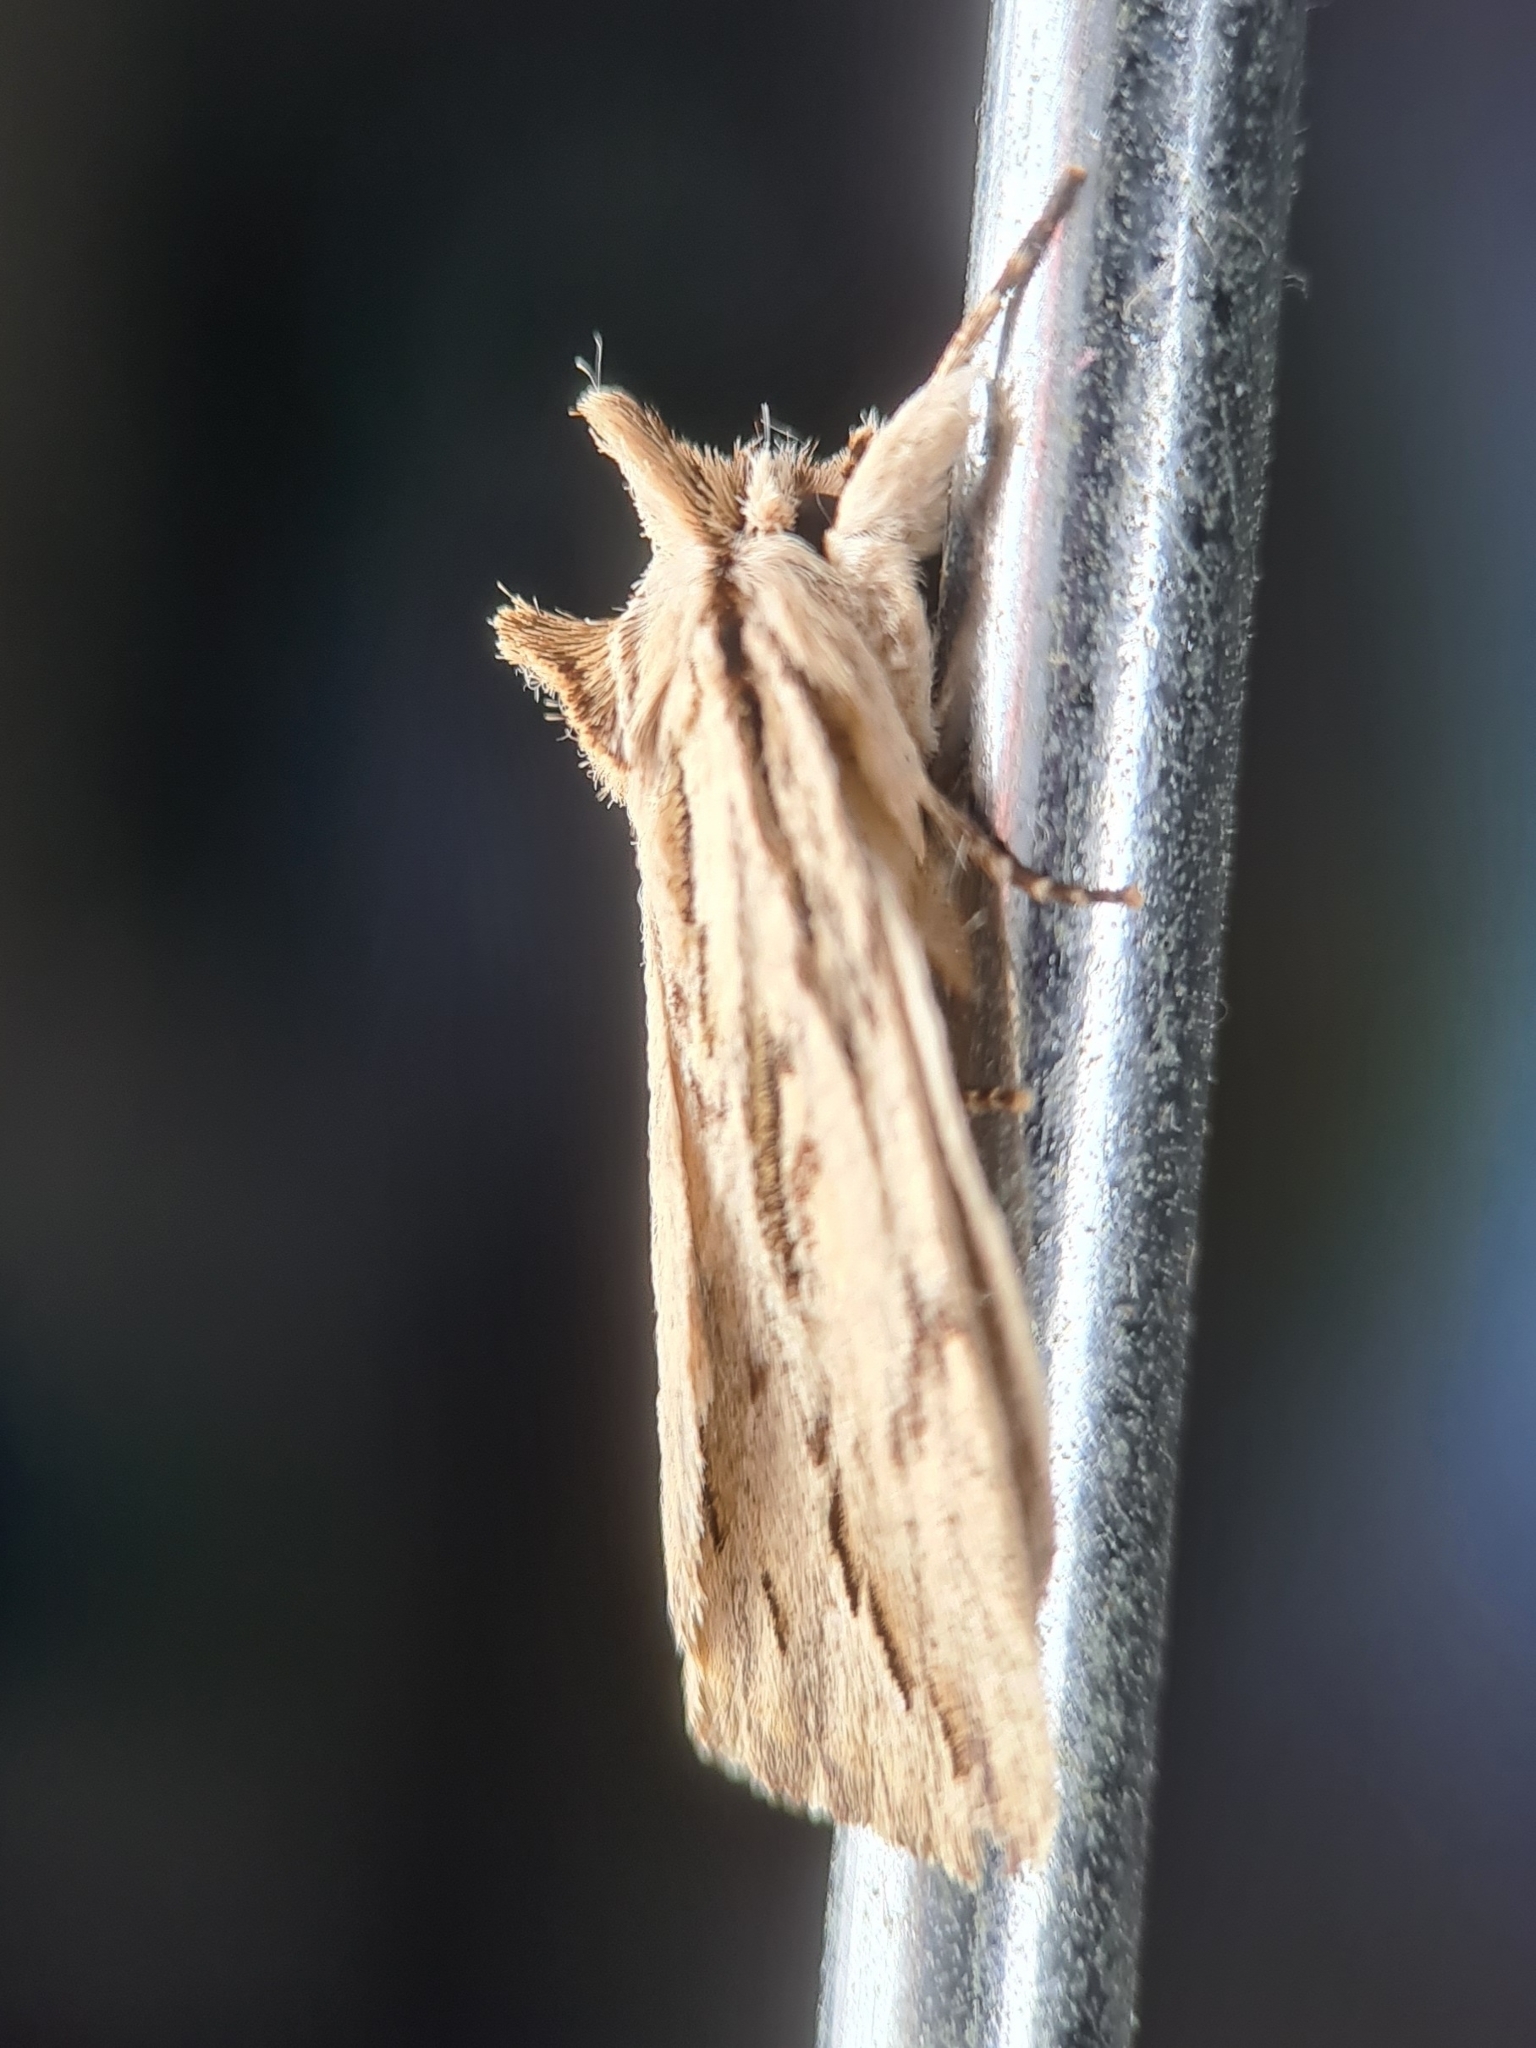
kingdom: Animalia
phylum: Arthropoda
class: Insecta
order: Lepidoptera
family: Notodontidae
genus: Ecnomodes
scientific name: Ecnomodes sagittaria
